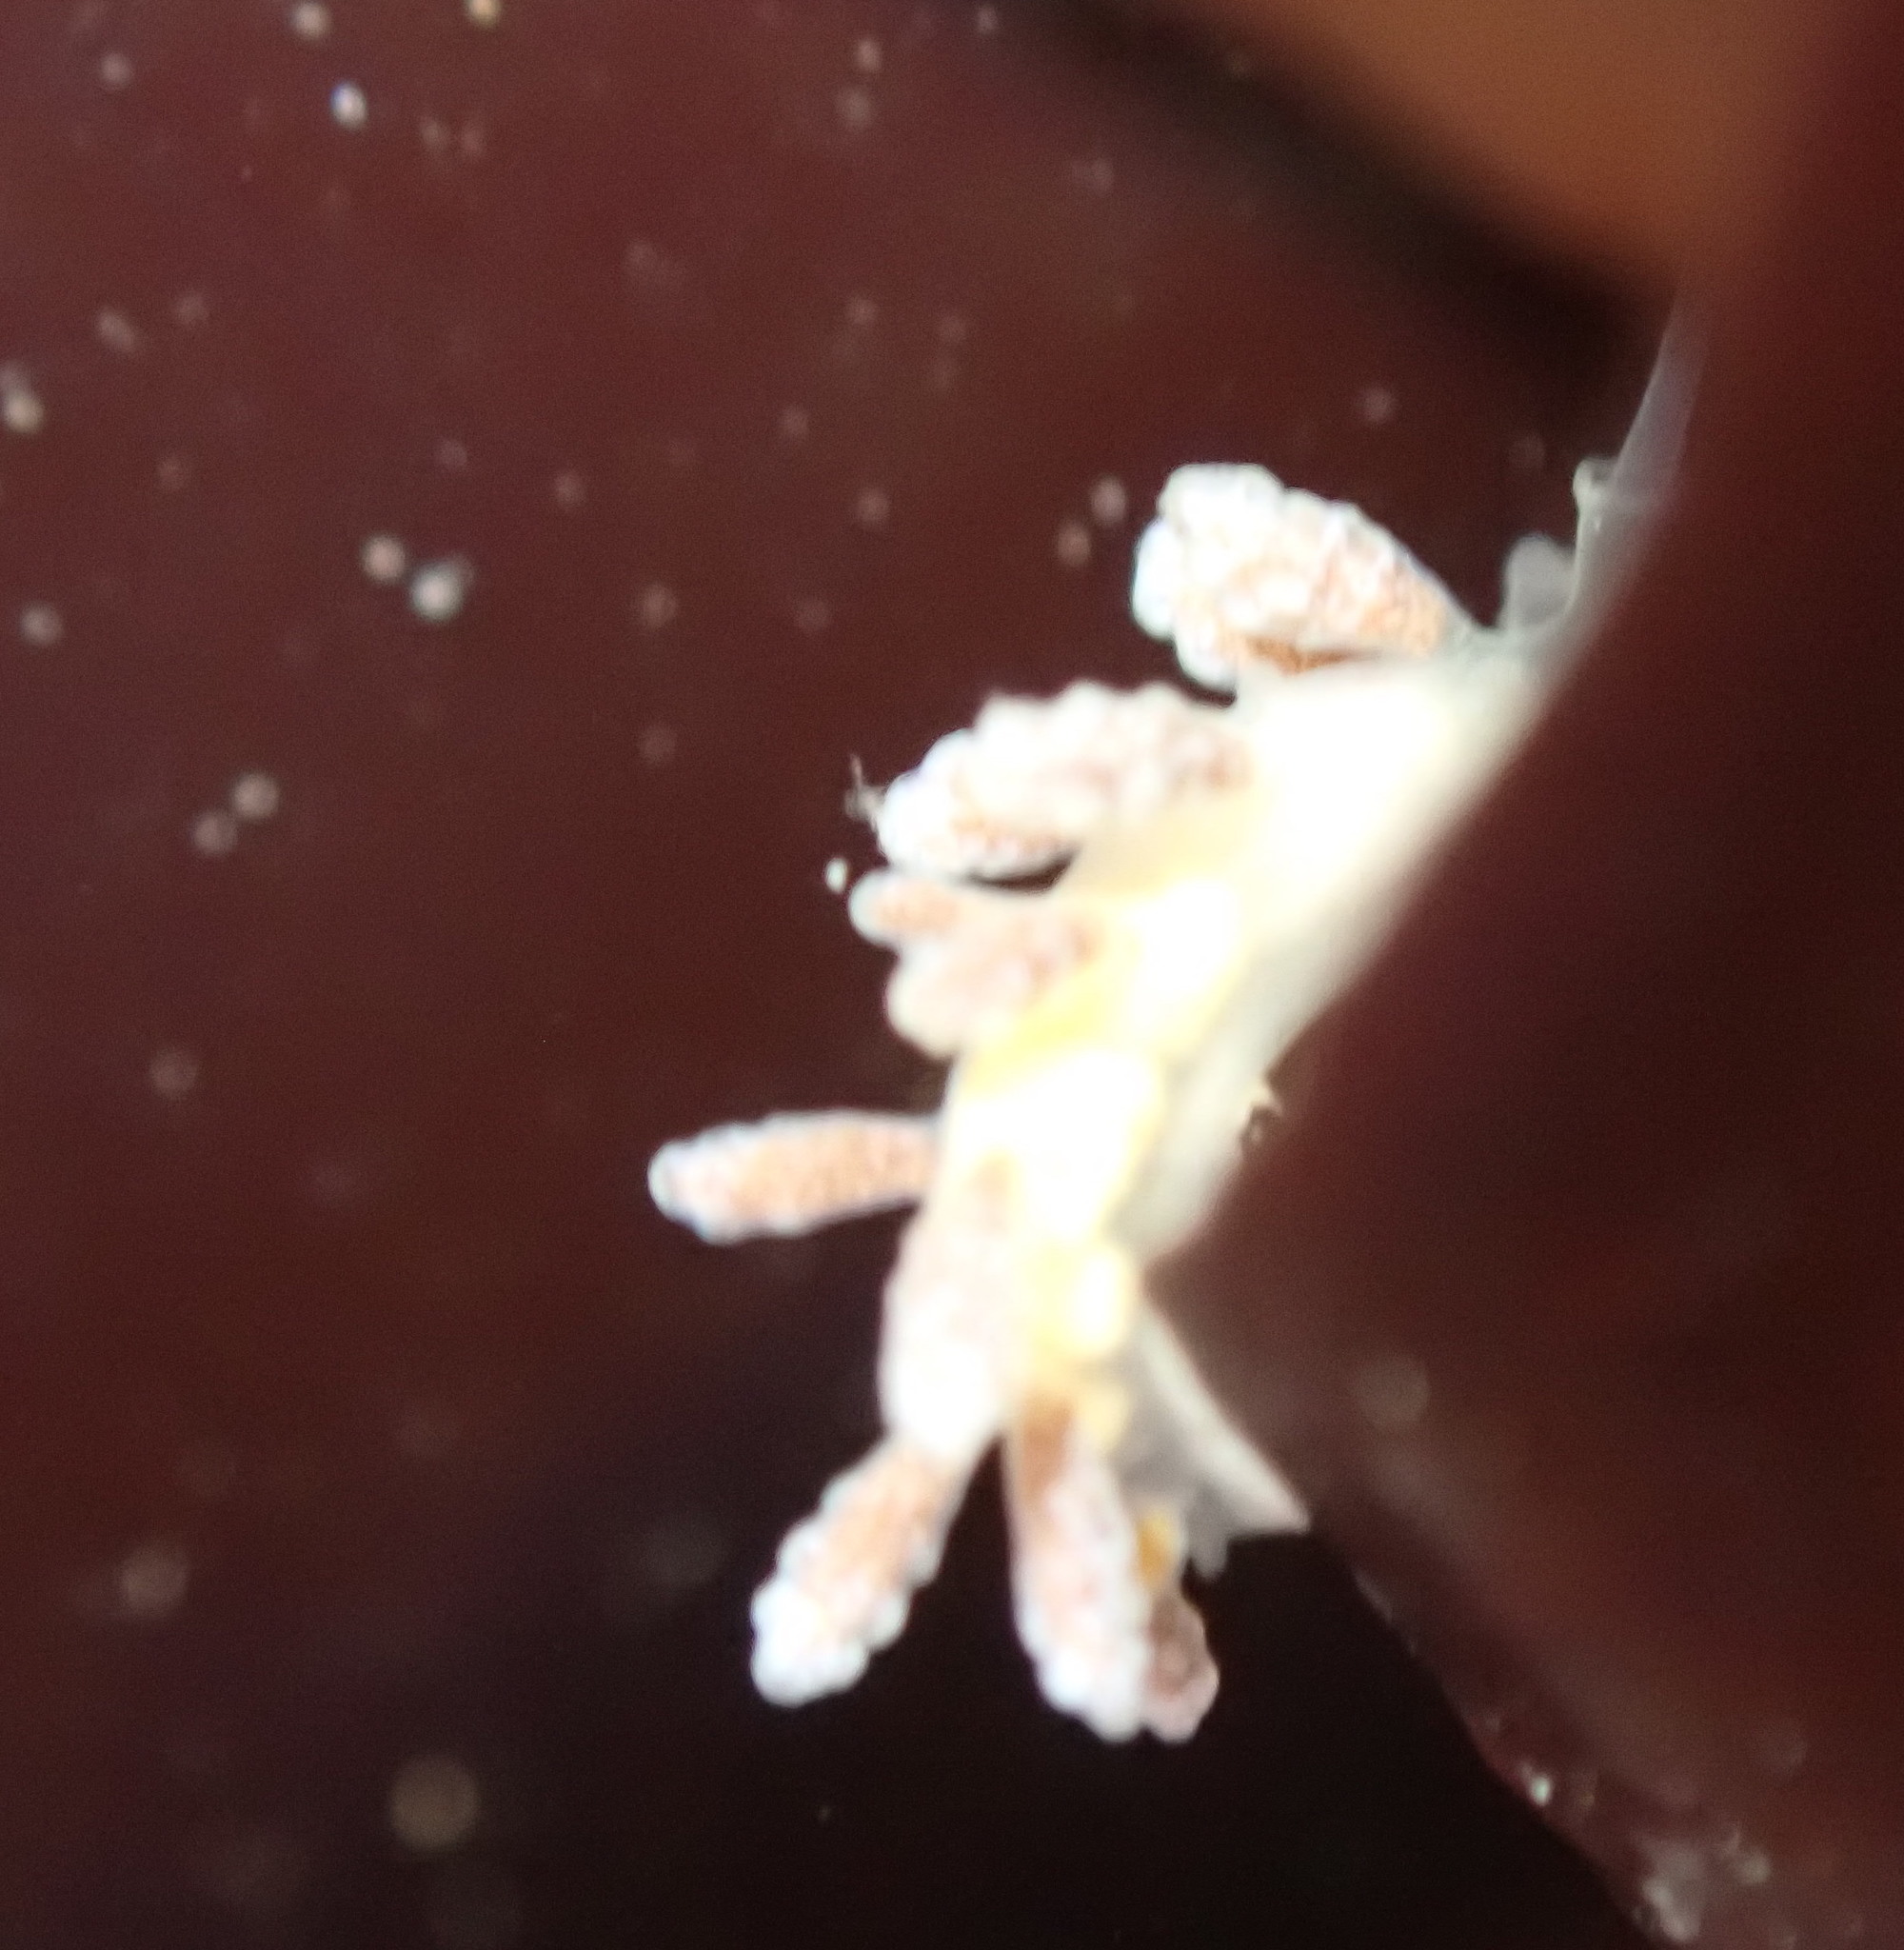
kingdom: Animalia
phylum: Mollusca
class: Gastropoda
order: Nudibranchia
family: Dotidae
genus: Doto
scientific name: Doto amyra
